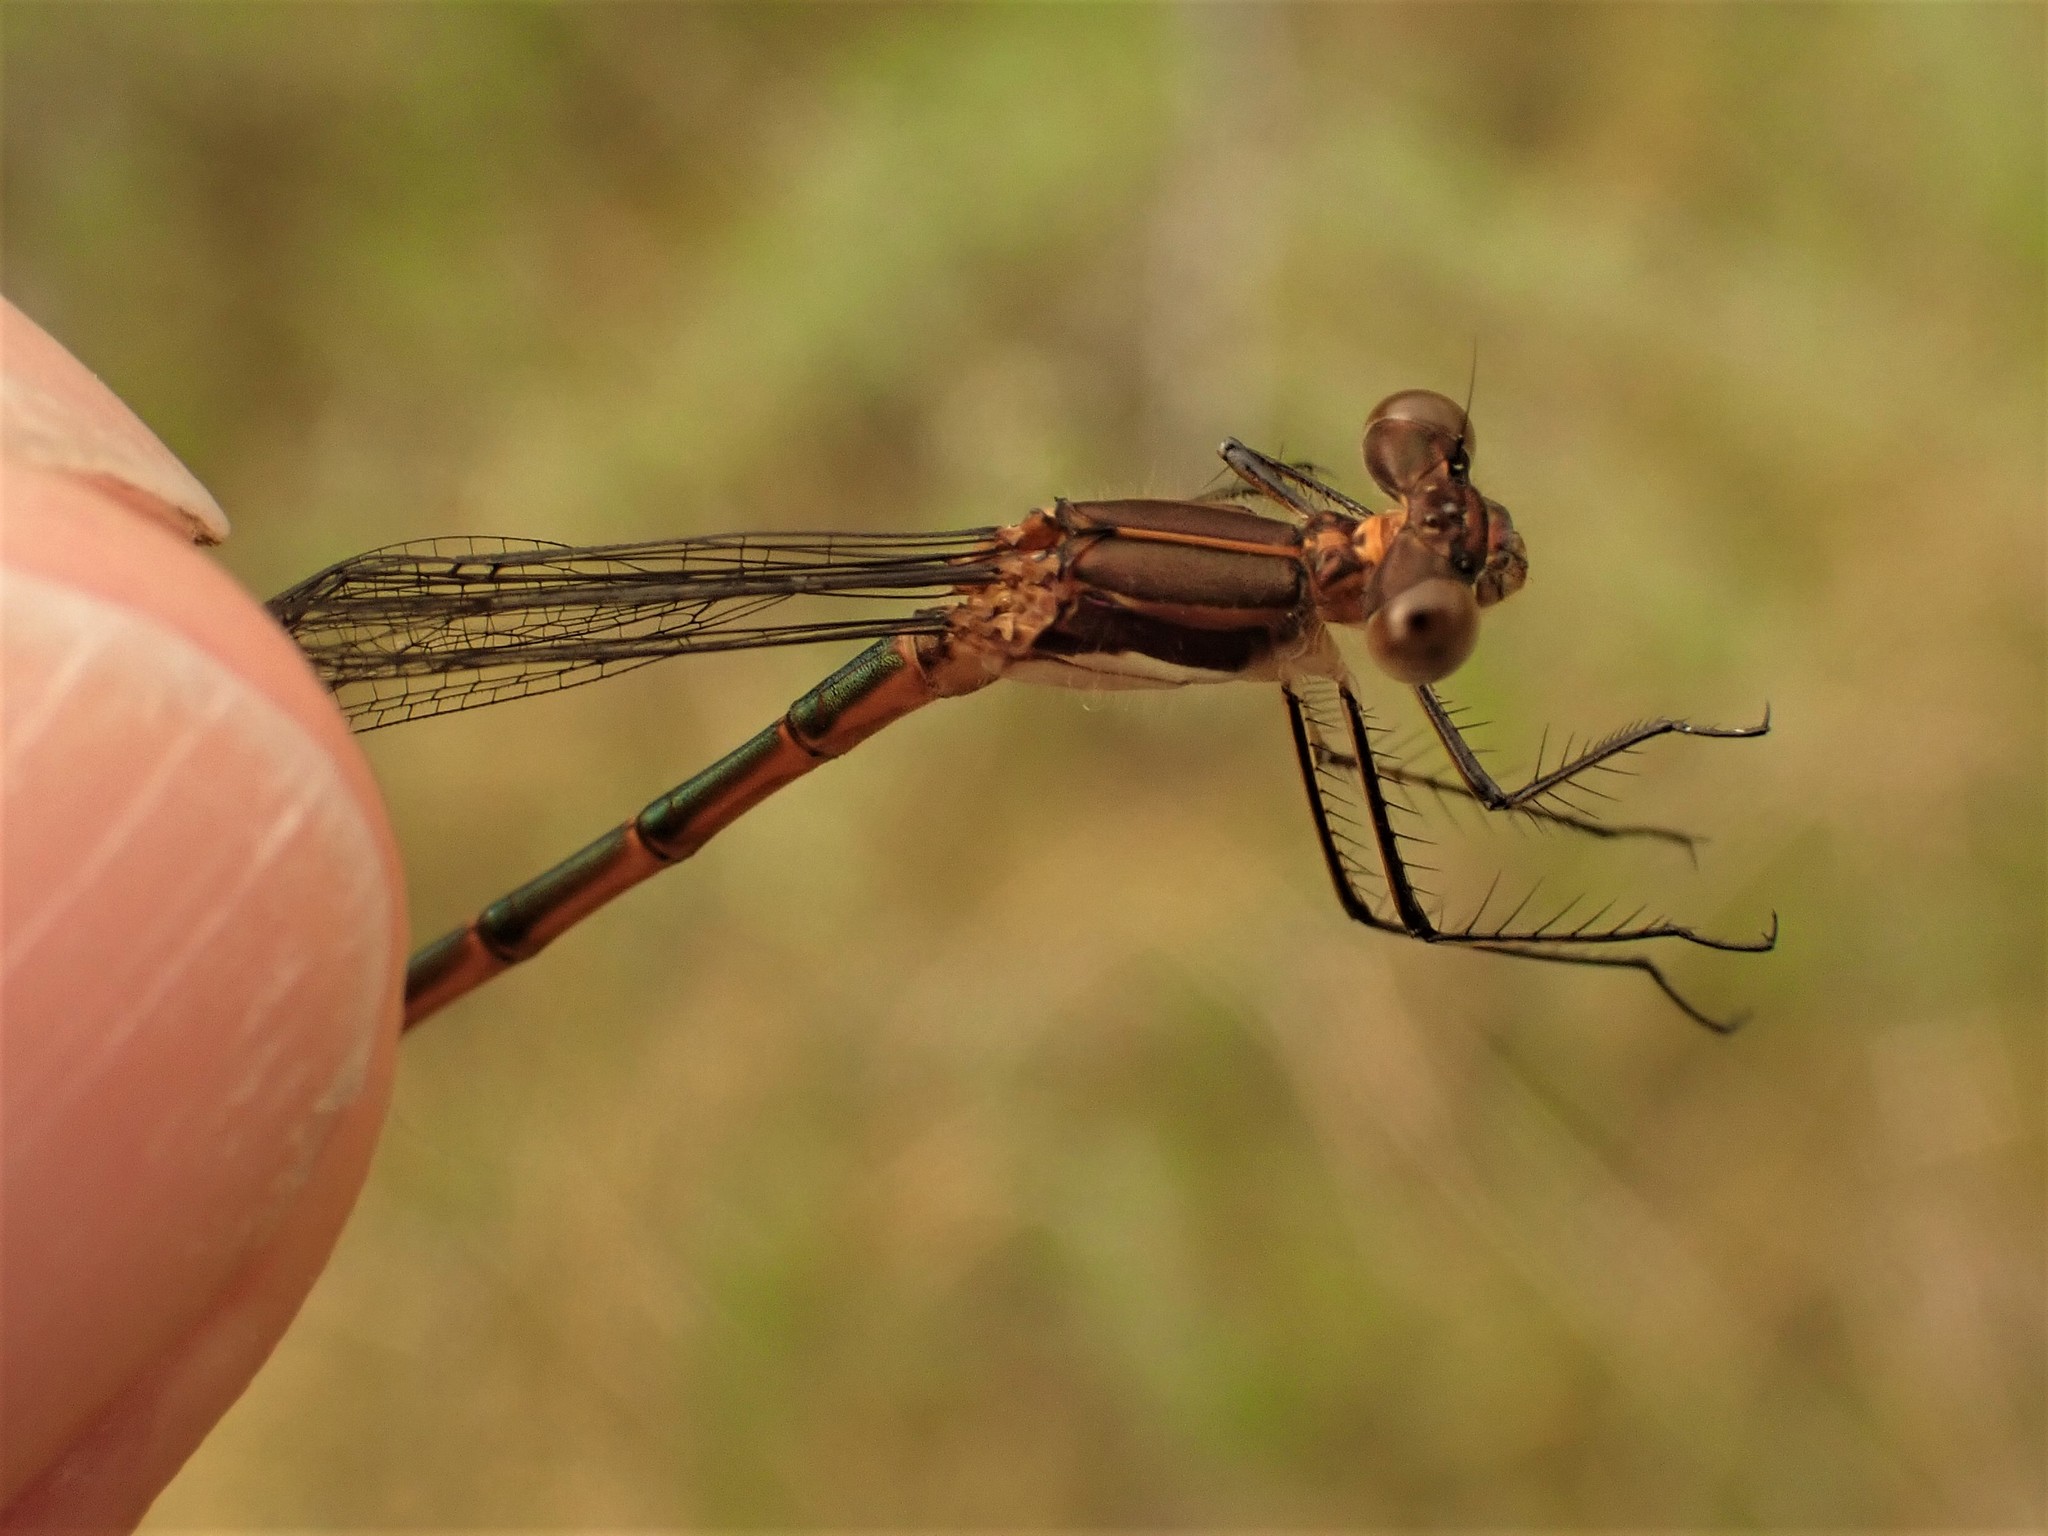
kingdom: Animalia
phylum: Arthropoda
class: Insecta
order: Odonata
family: Lestidae
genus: Lestes
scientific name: Lestes disjunctus
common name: Northern spreadwing
